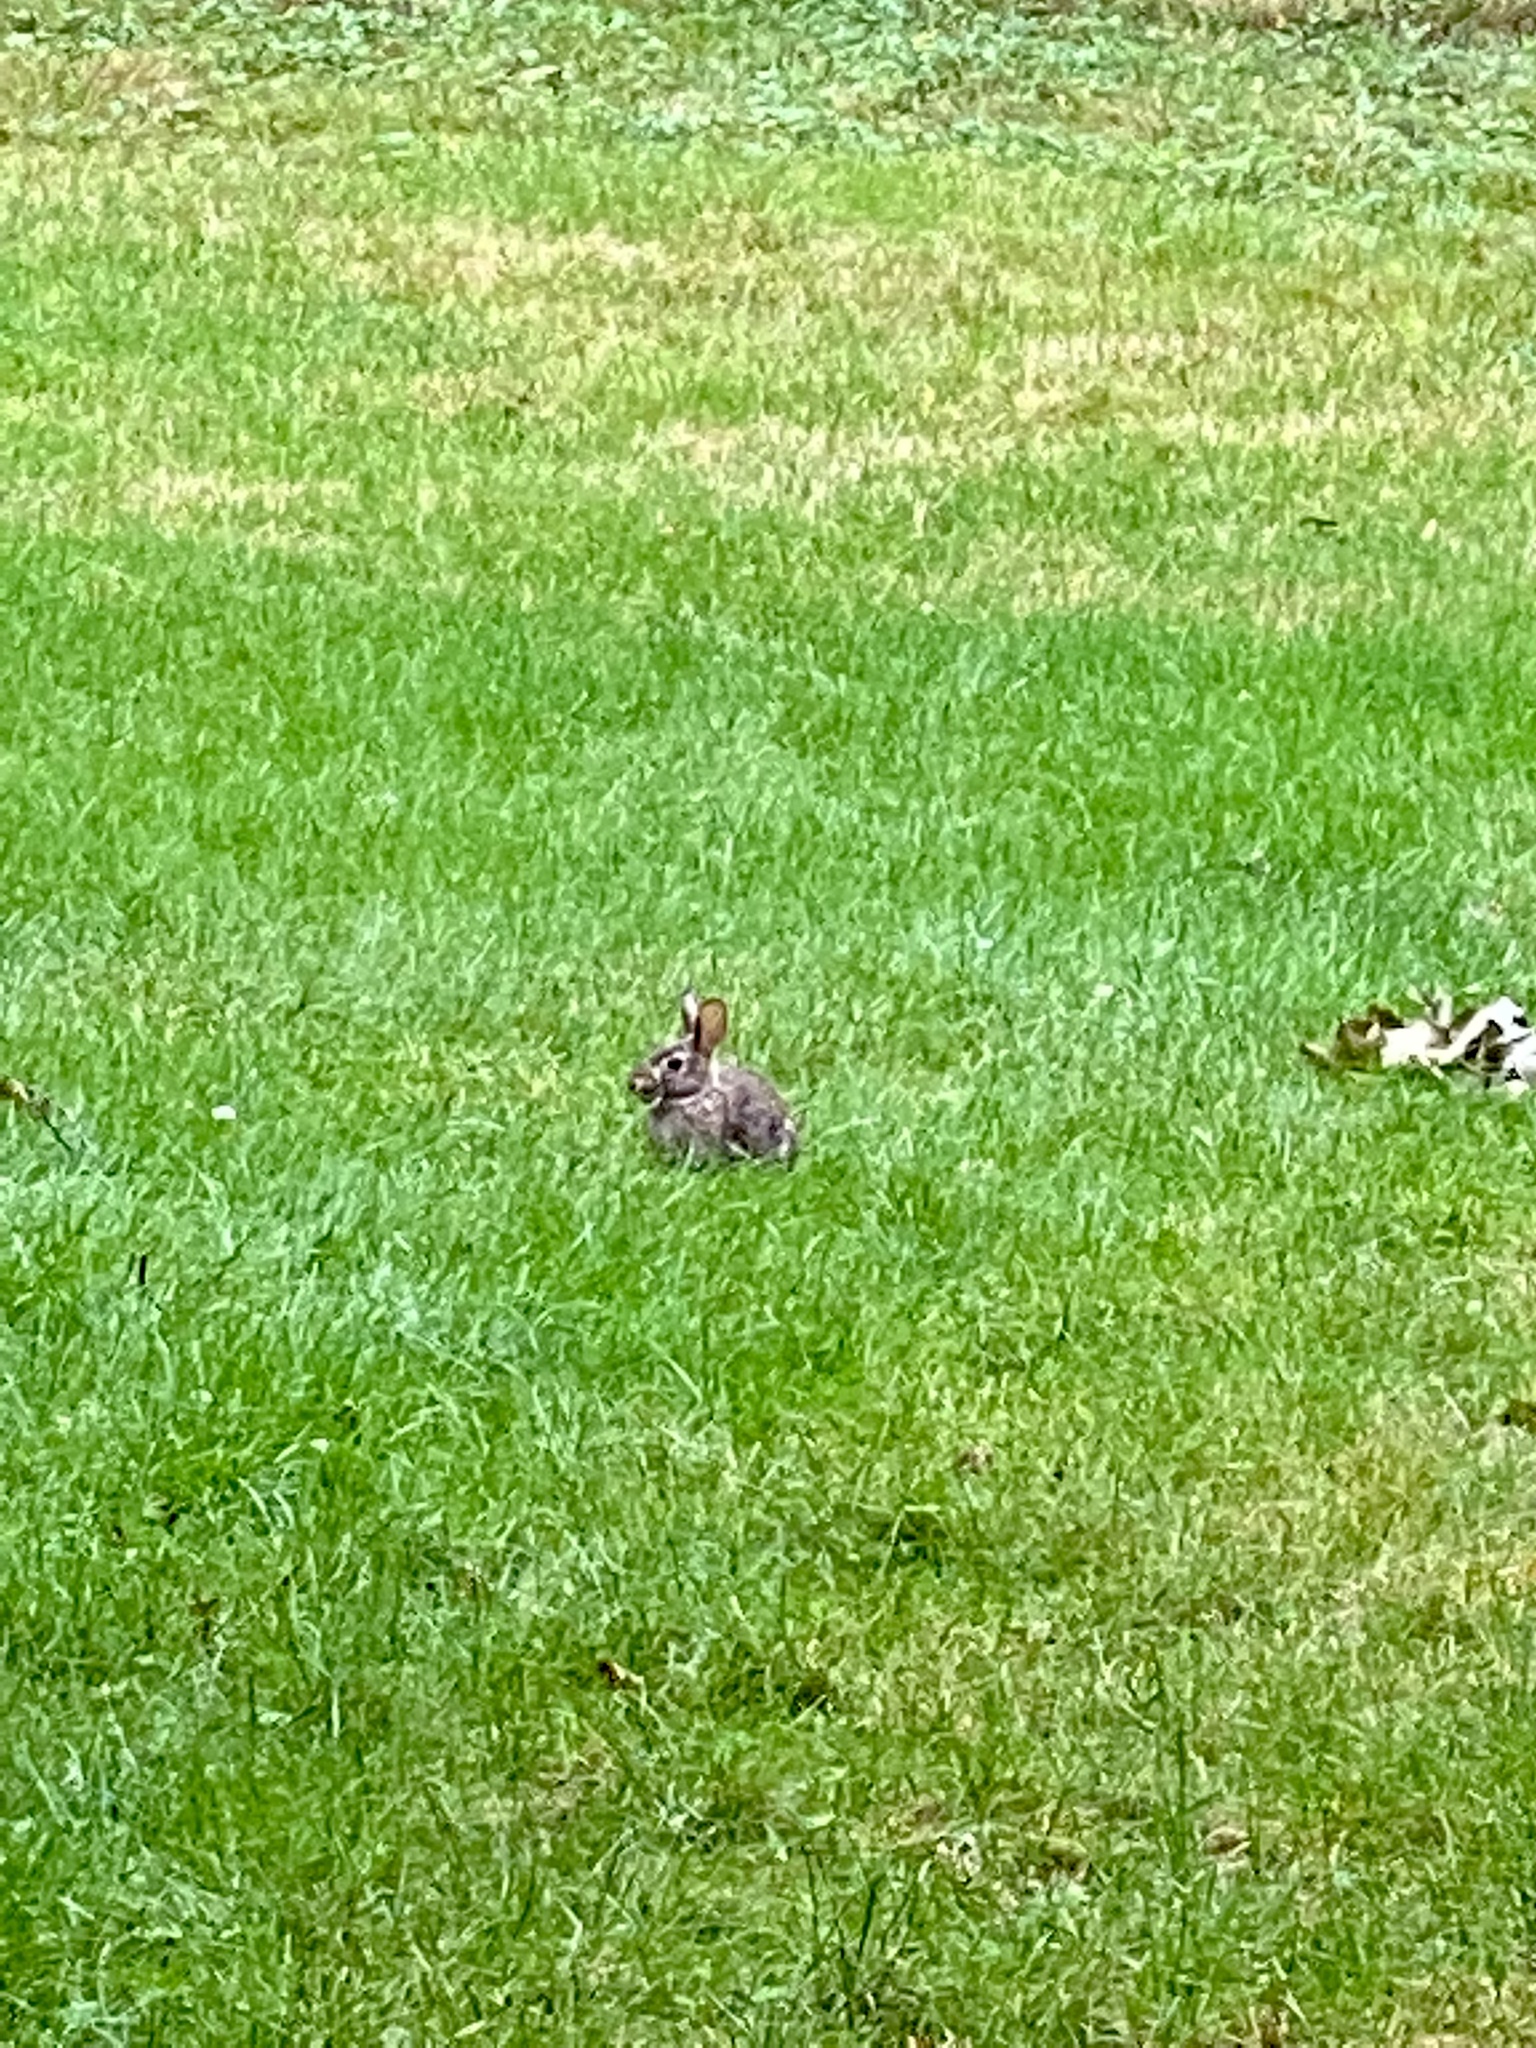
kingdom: Animalia
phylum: Chordata
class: Mammalia
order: Lagomorpha
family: Leporidae
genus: Sylvilagus
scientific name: Sylvilagus floridanus
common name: Eastern cottontail
